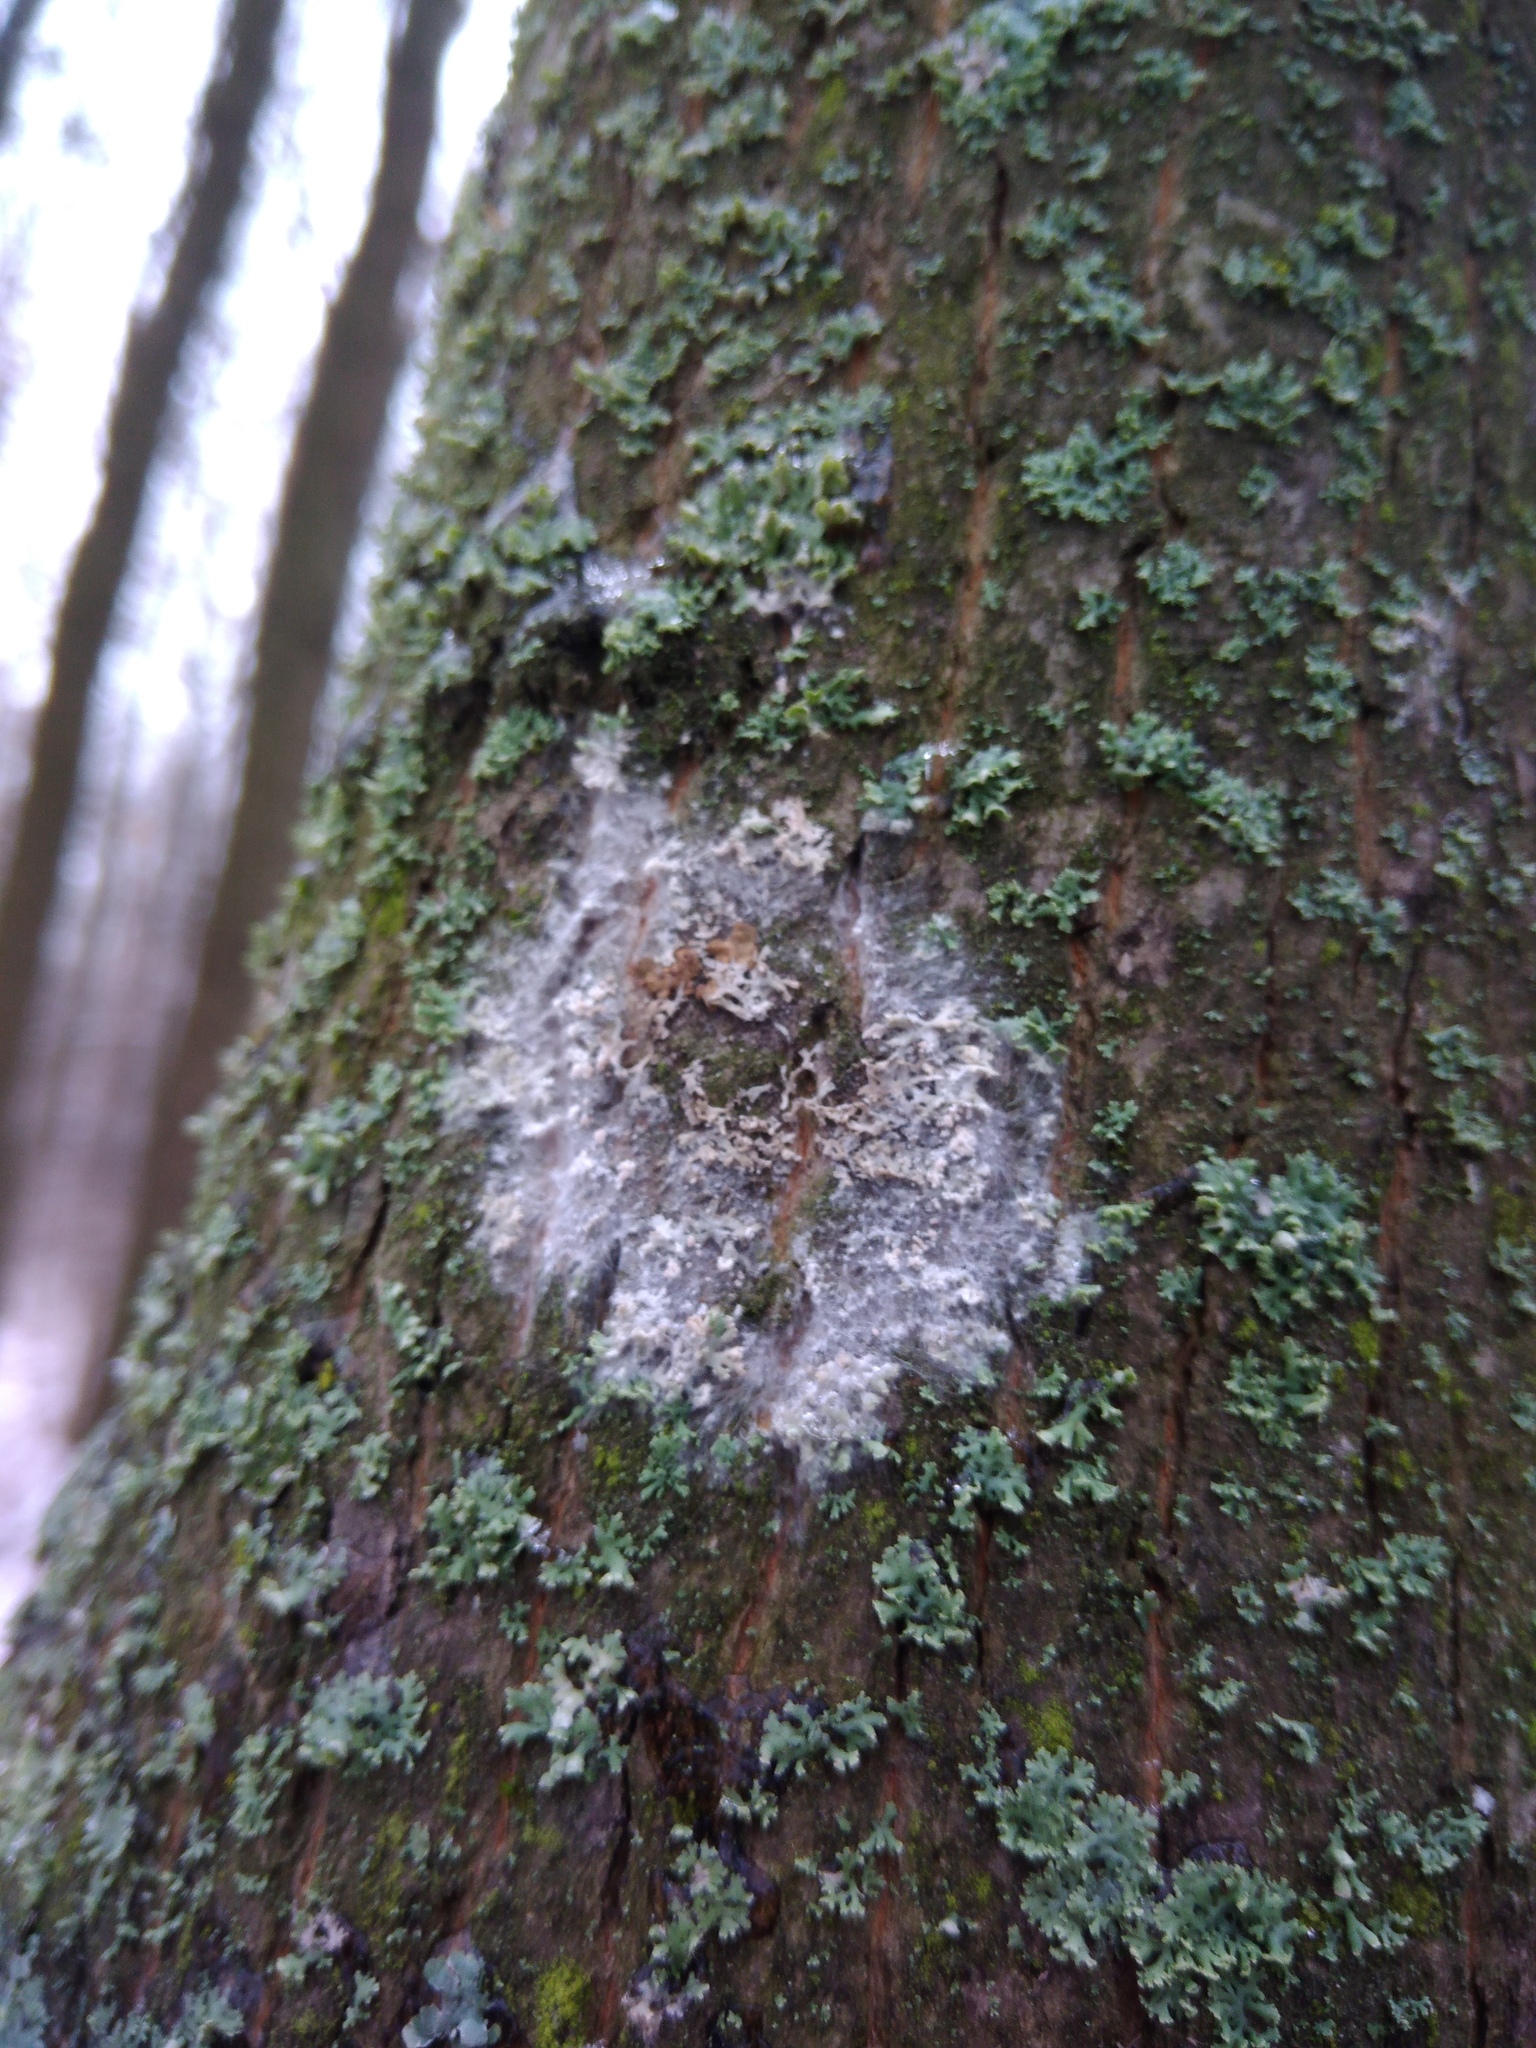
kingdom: Fungi
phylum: Basidiomycota
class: Agaricomycetes
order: Atheliales
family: Atheliaceae
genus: Athelia
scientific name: Athelia arachnoidea
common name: Candelabra duster
